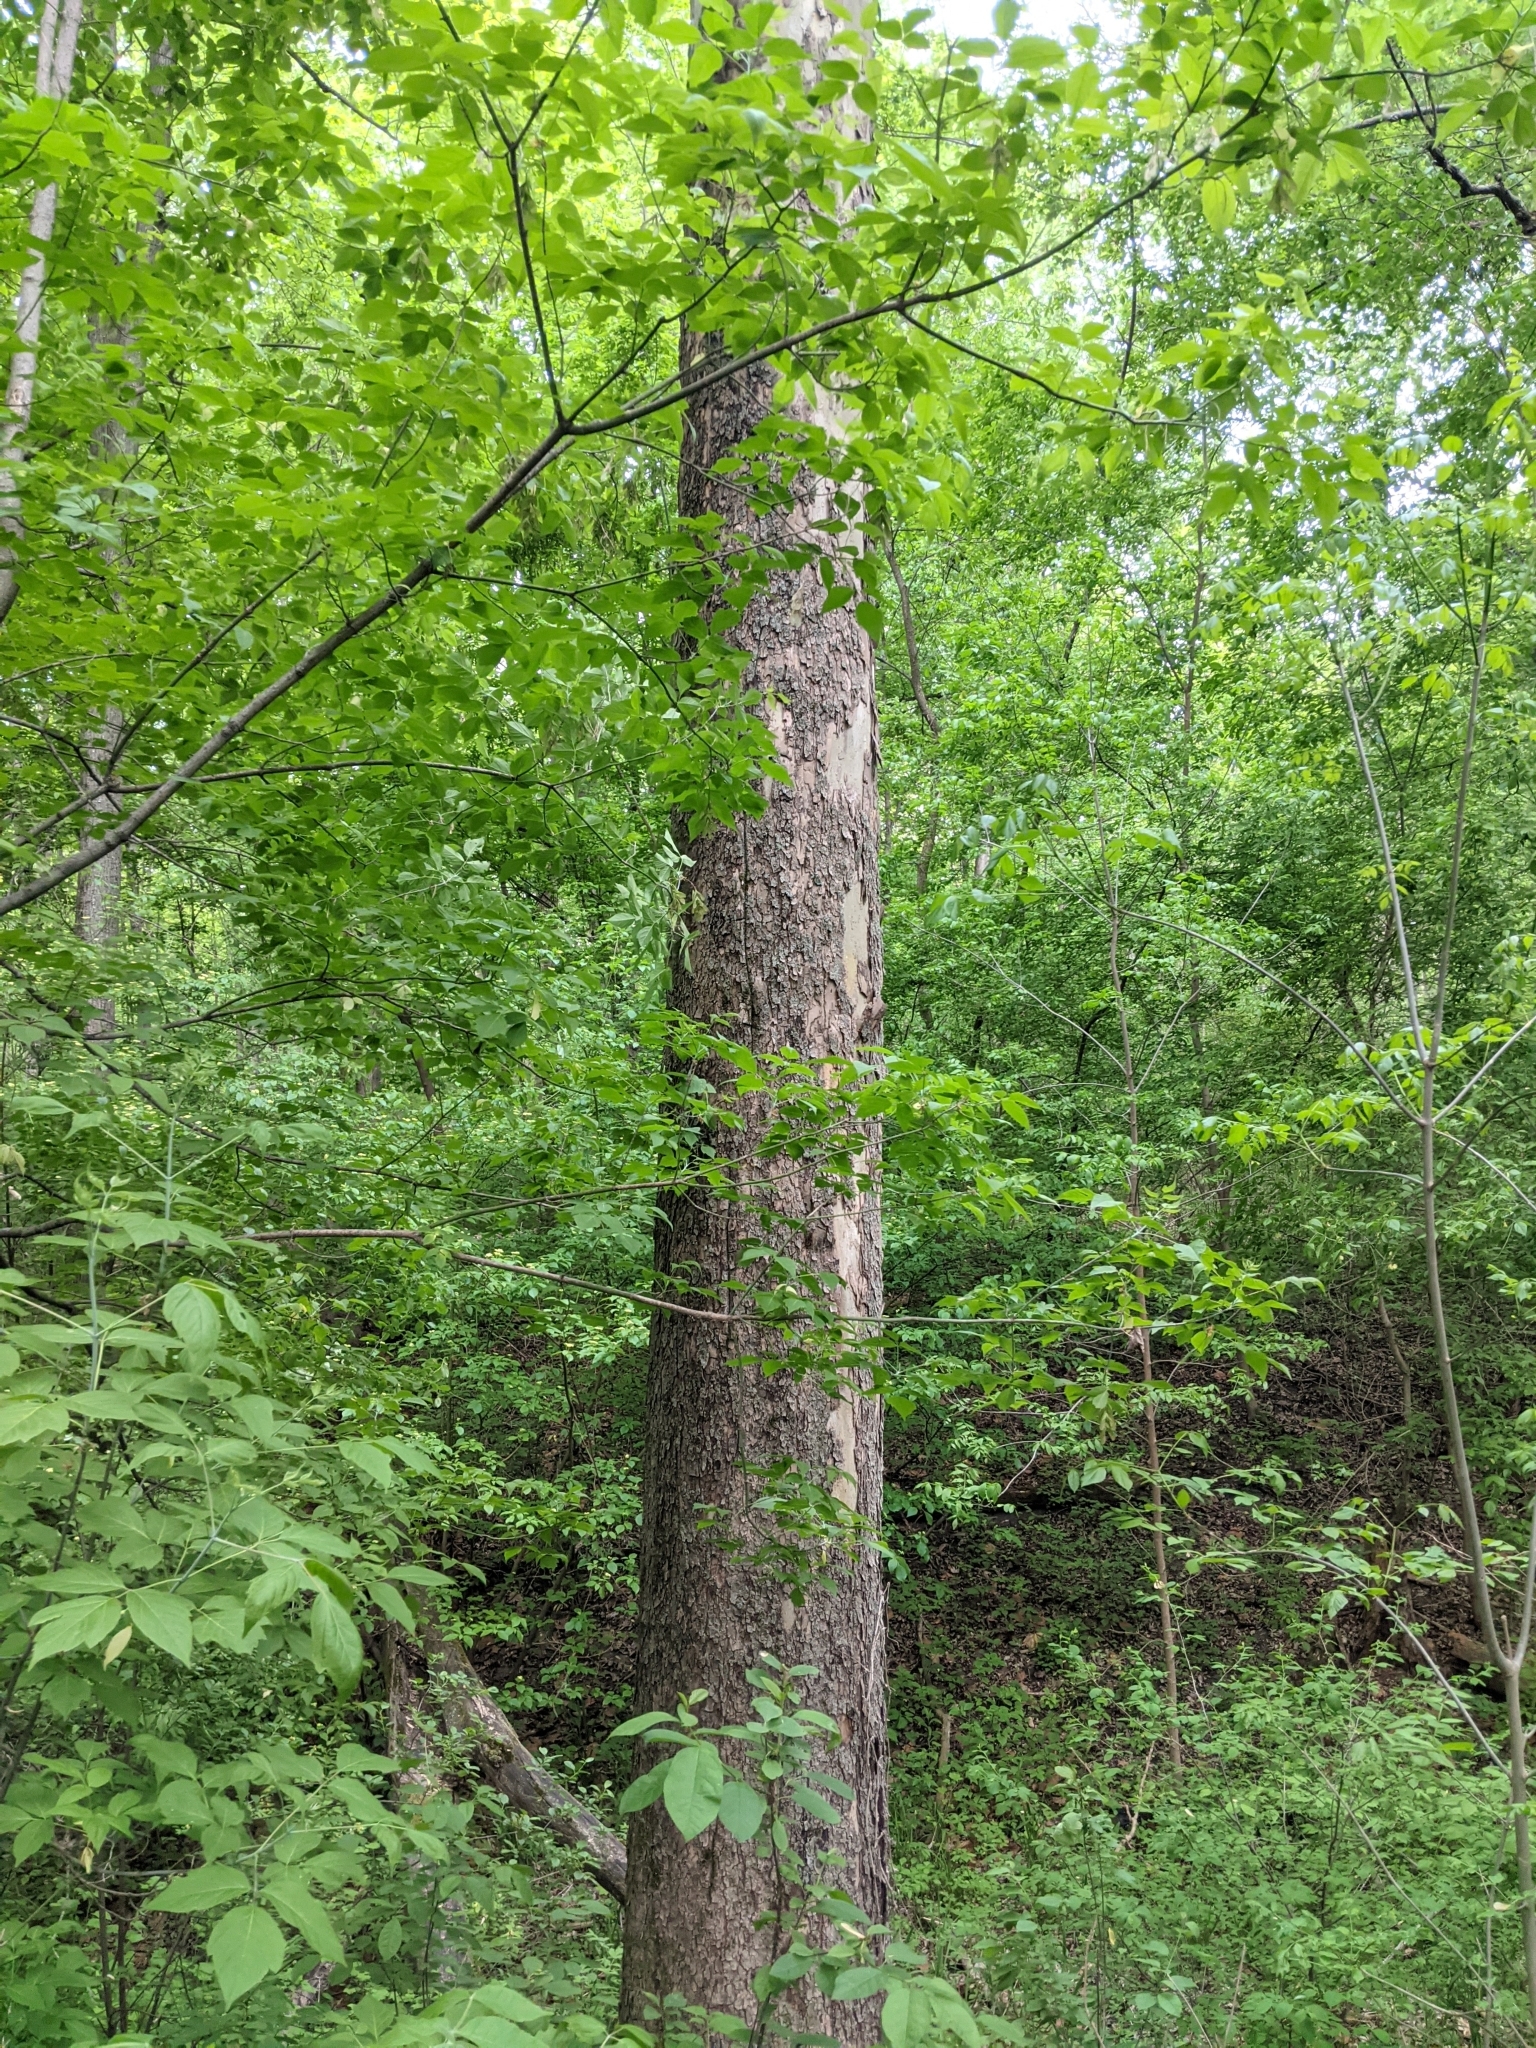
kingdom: Plantae
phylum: Tracheophyta
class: Magnoliopsida
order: Proteales
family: Platanaceae
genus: Platanus
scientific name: Platanus occidentalis
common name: American sycamore
